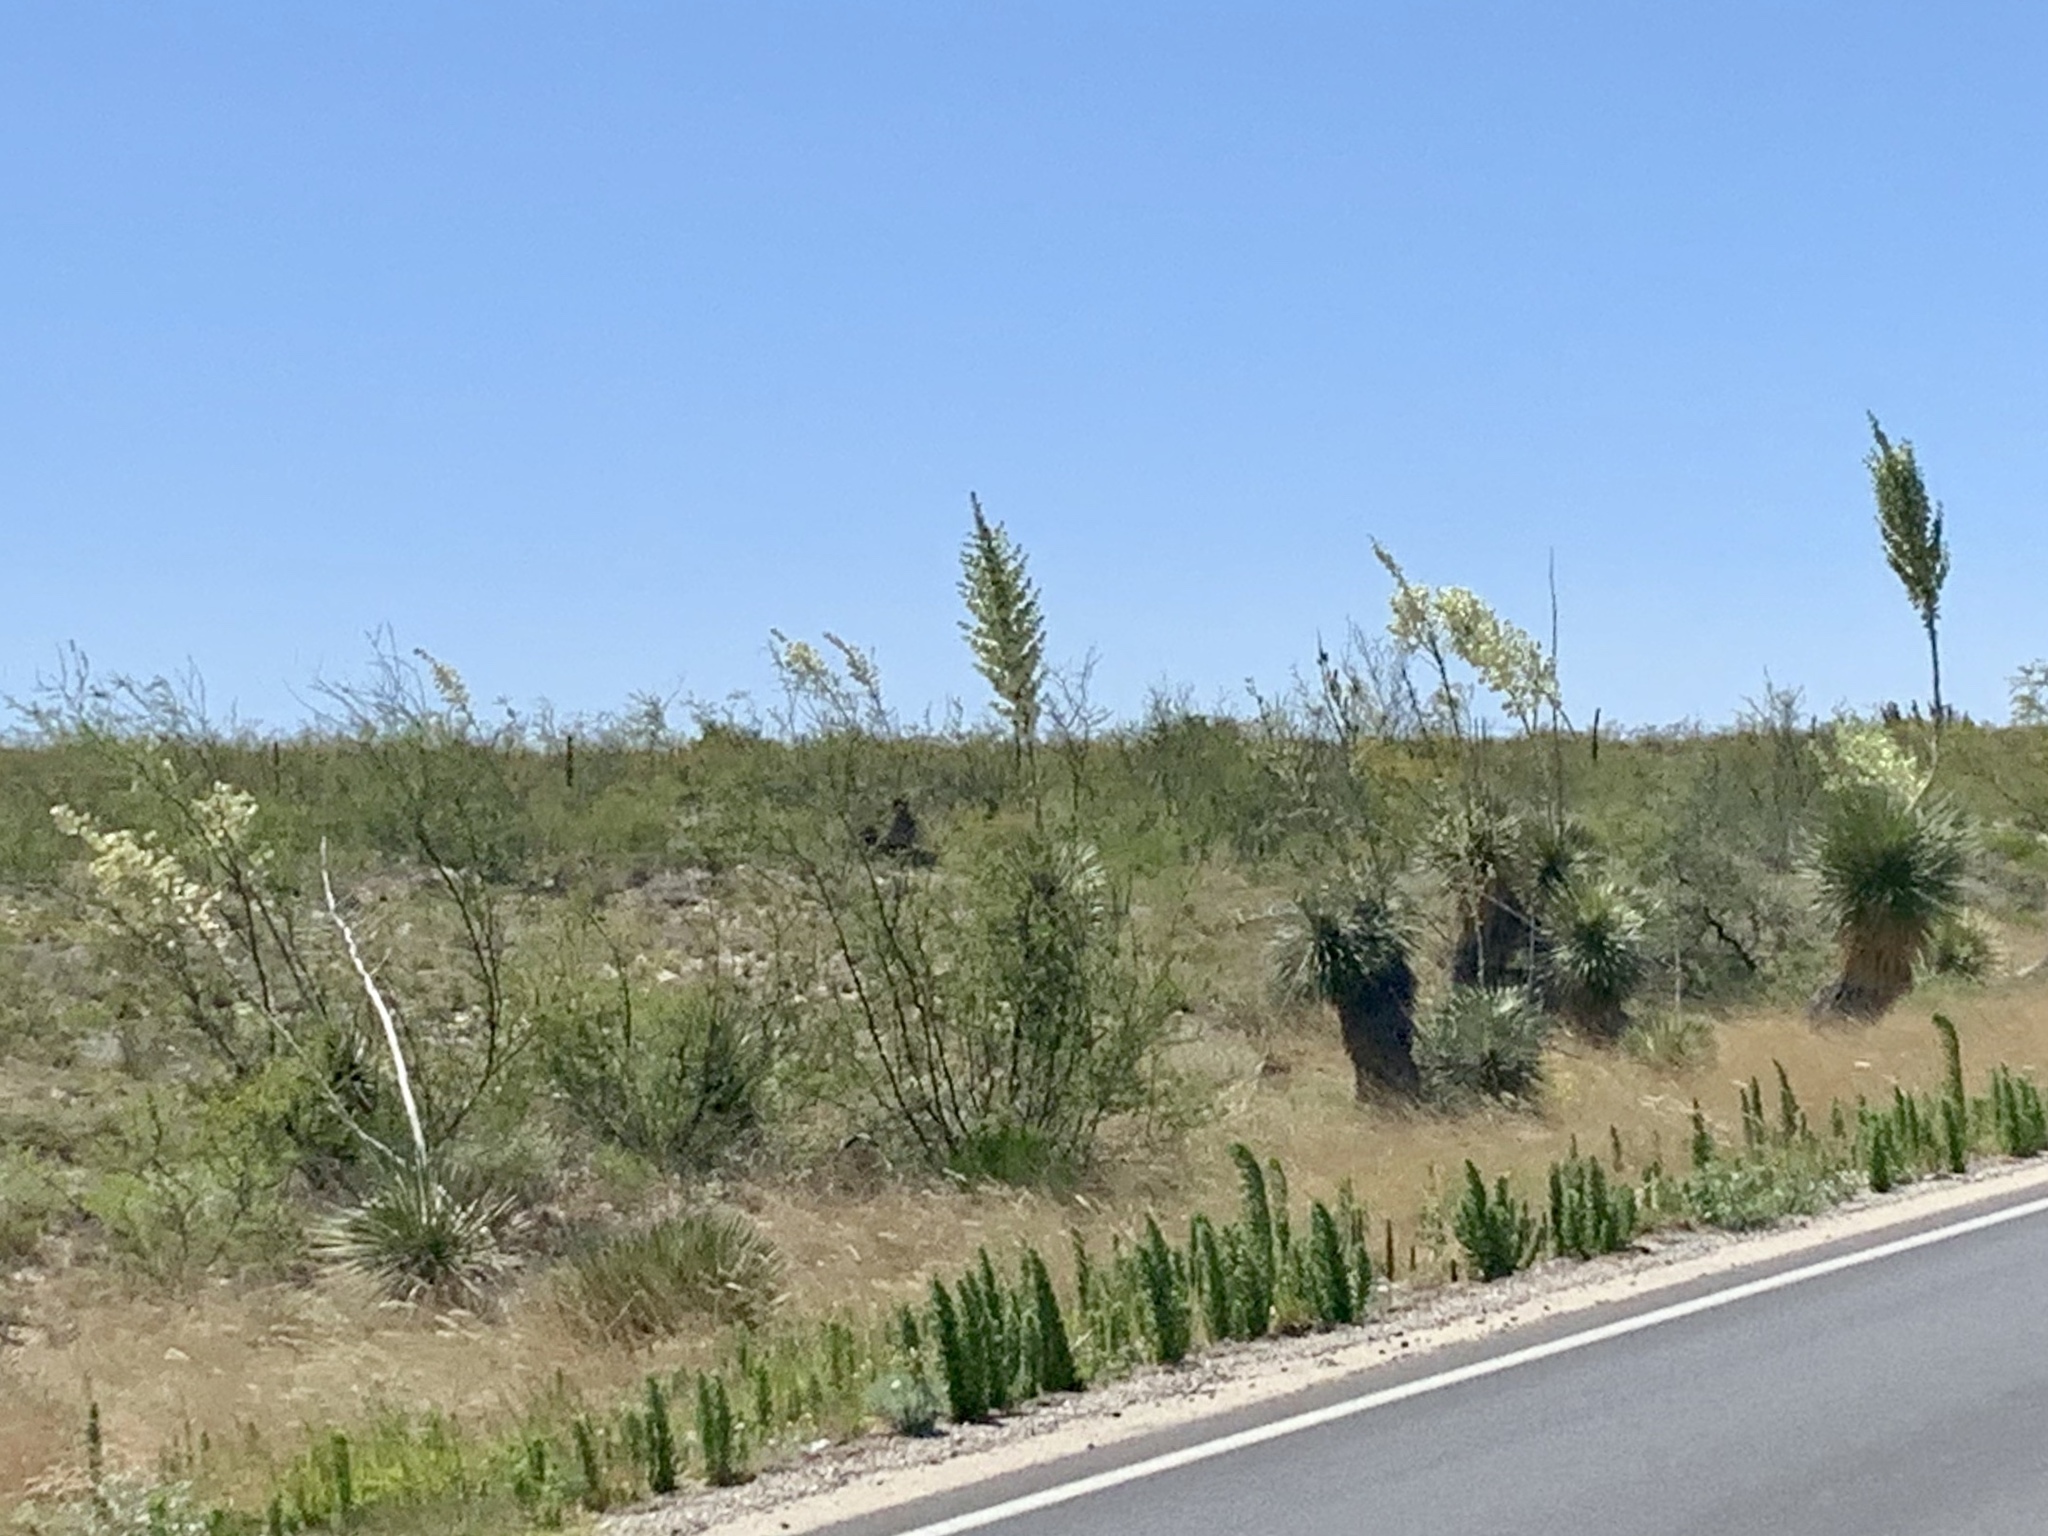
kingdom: Plantae
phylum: Tracheophyta
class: Liliopsida
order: Asparagales
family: Asparagaceae
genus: Yucca
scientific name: Yucca elata
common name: Palmella
